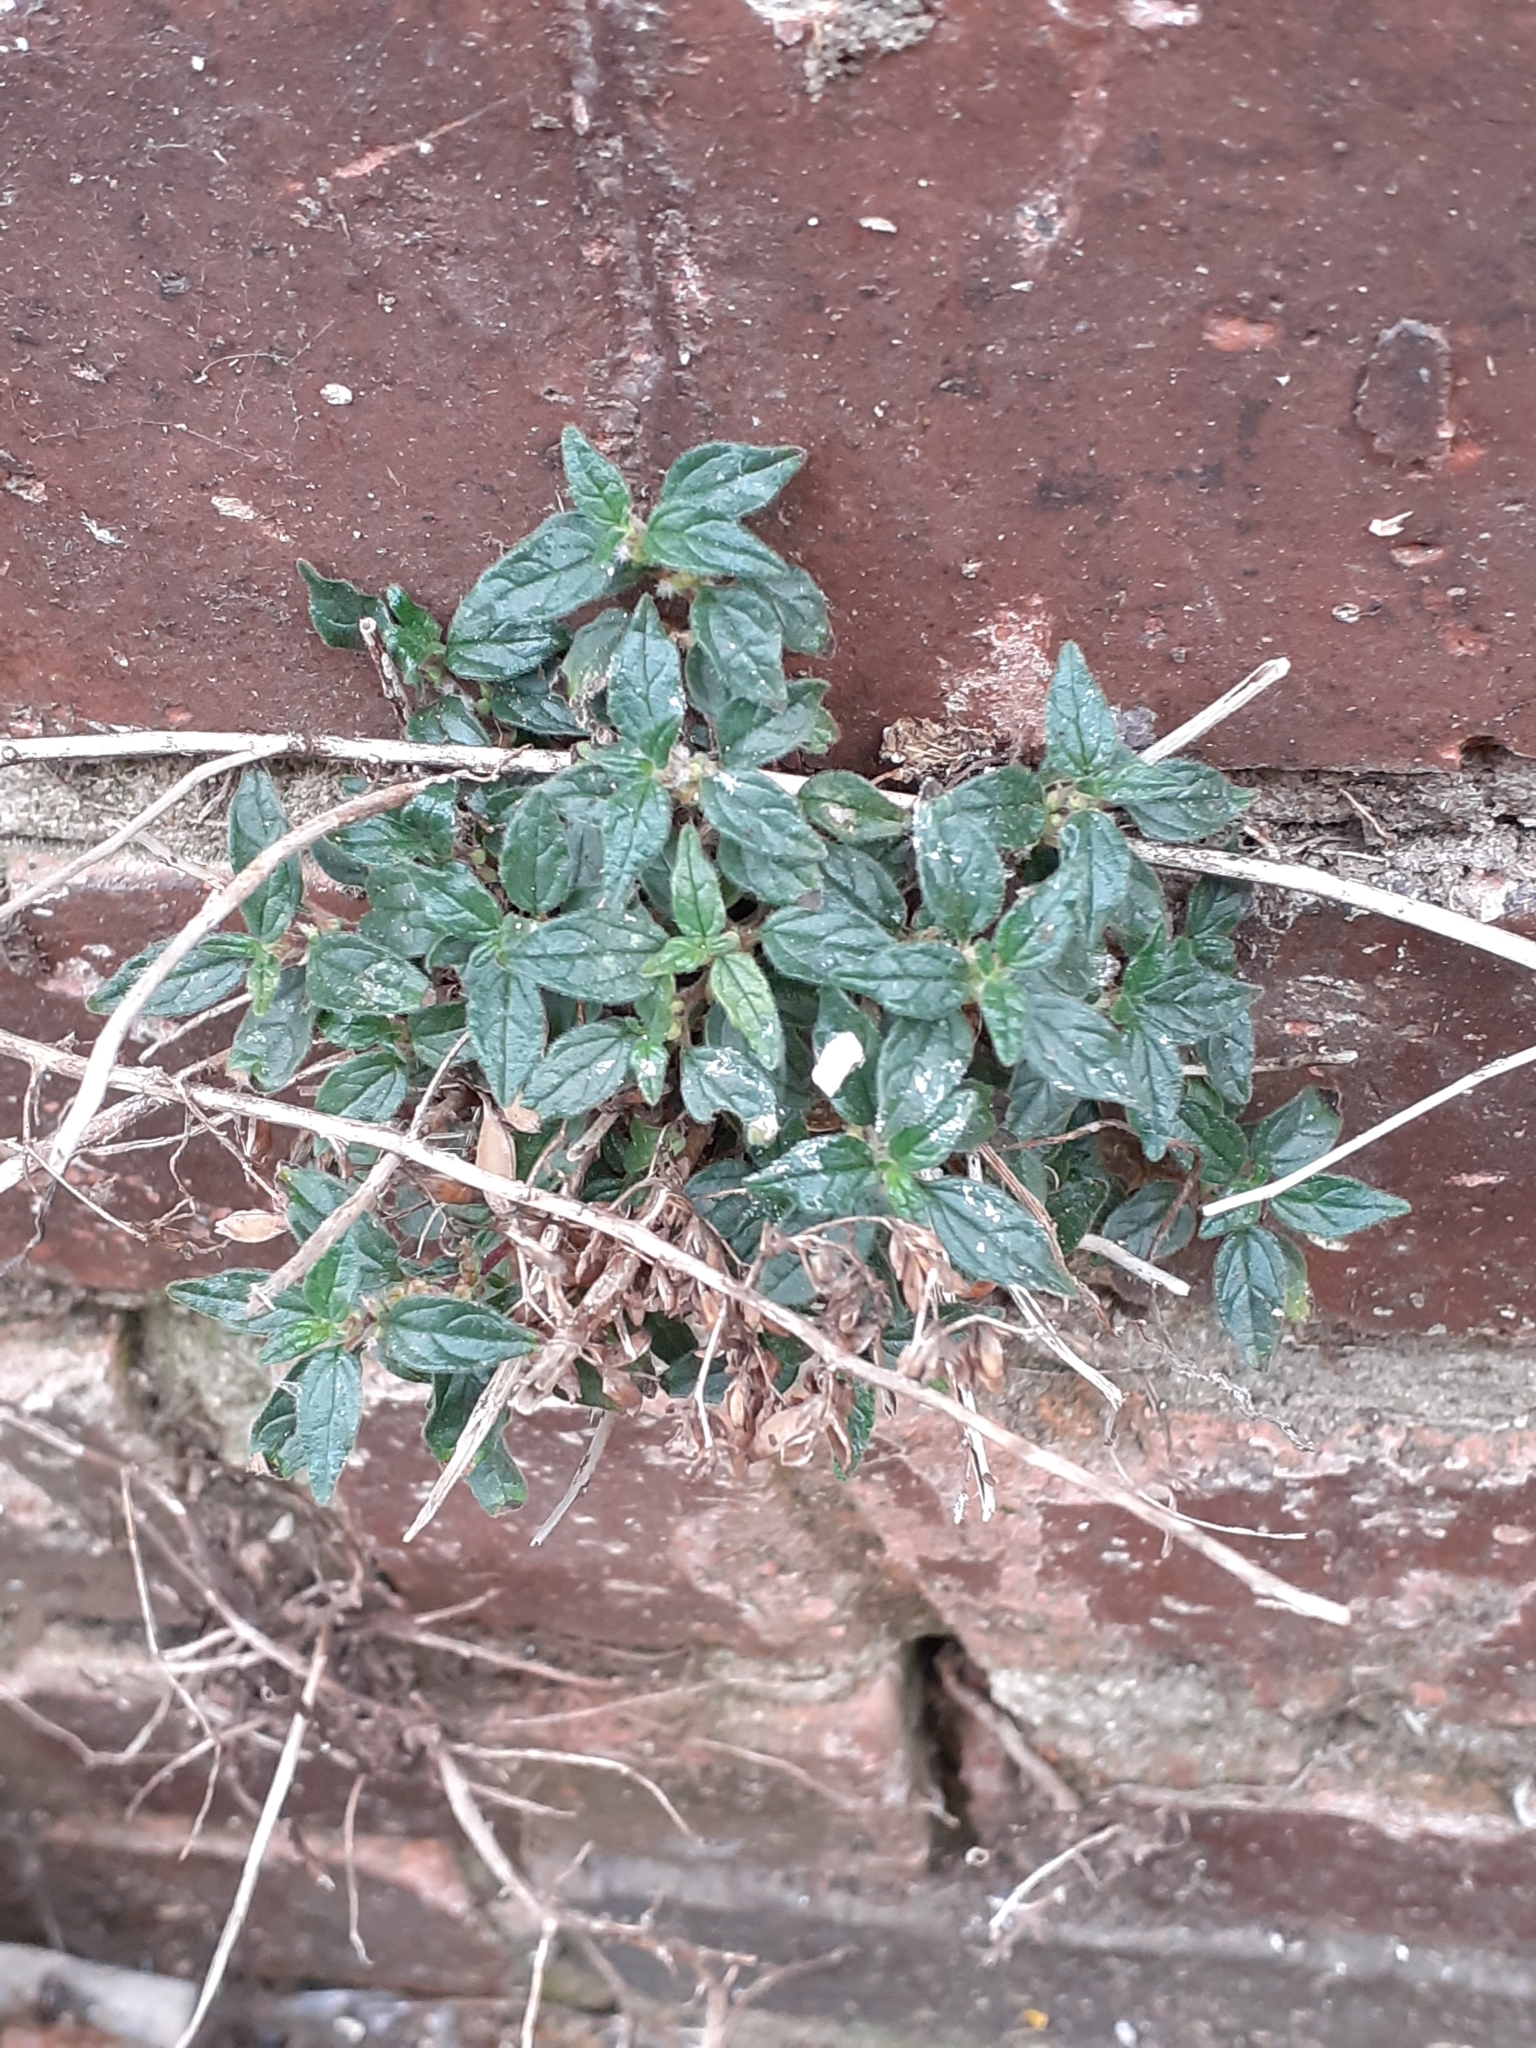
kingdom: Plantae
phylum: Tracheophyta
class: Magnoliopsida
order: Rosales
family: Urticaceae
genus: Parietaria
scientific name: Parietaria judaica
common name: Pellitory-of-the-wall
